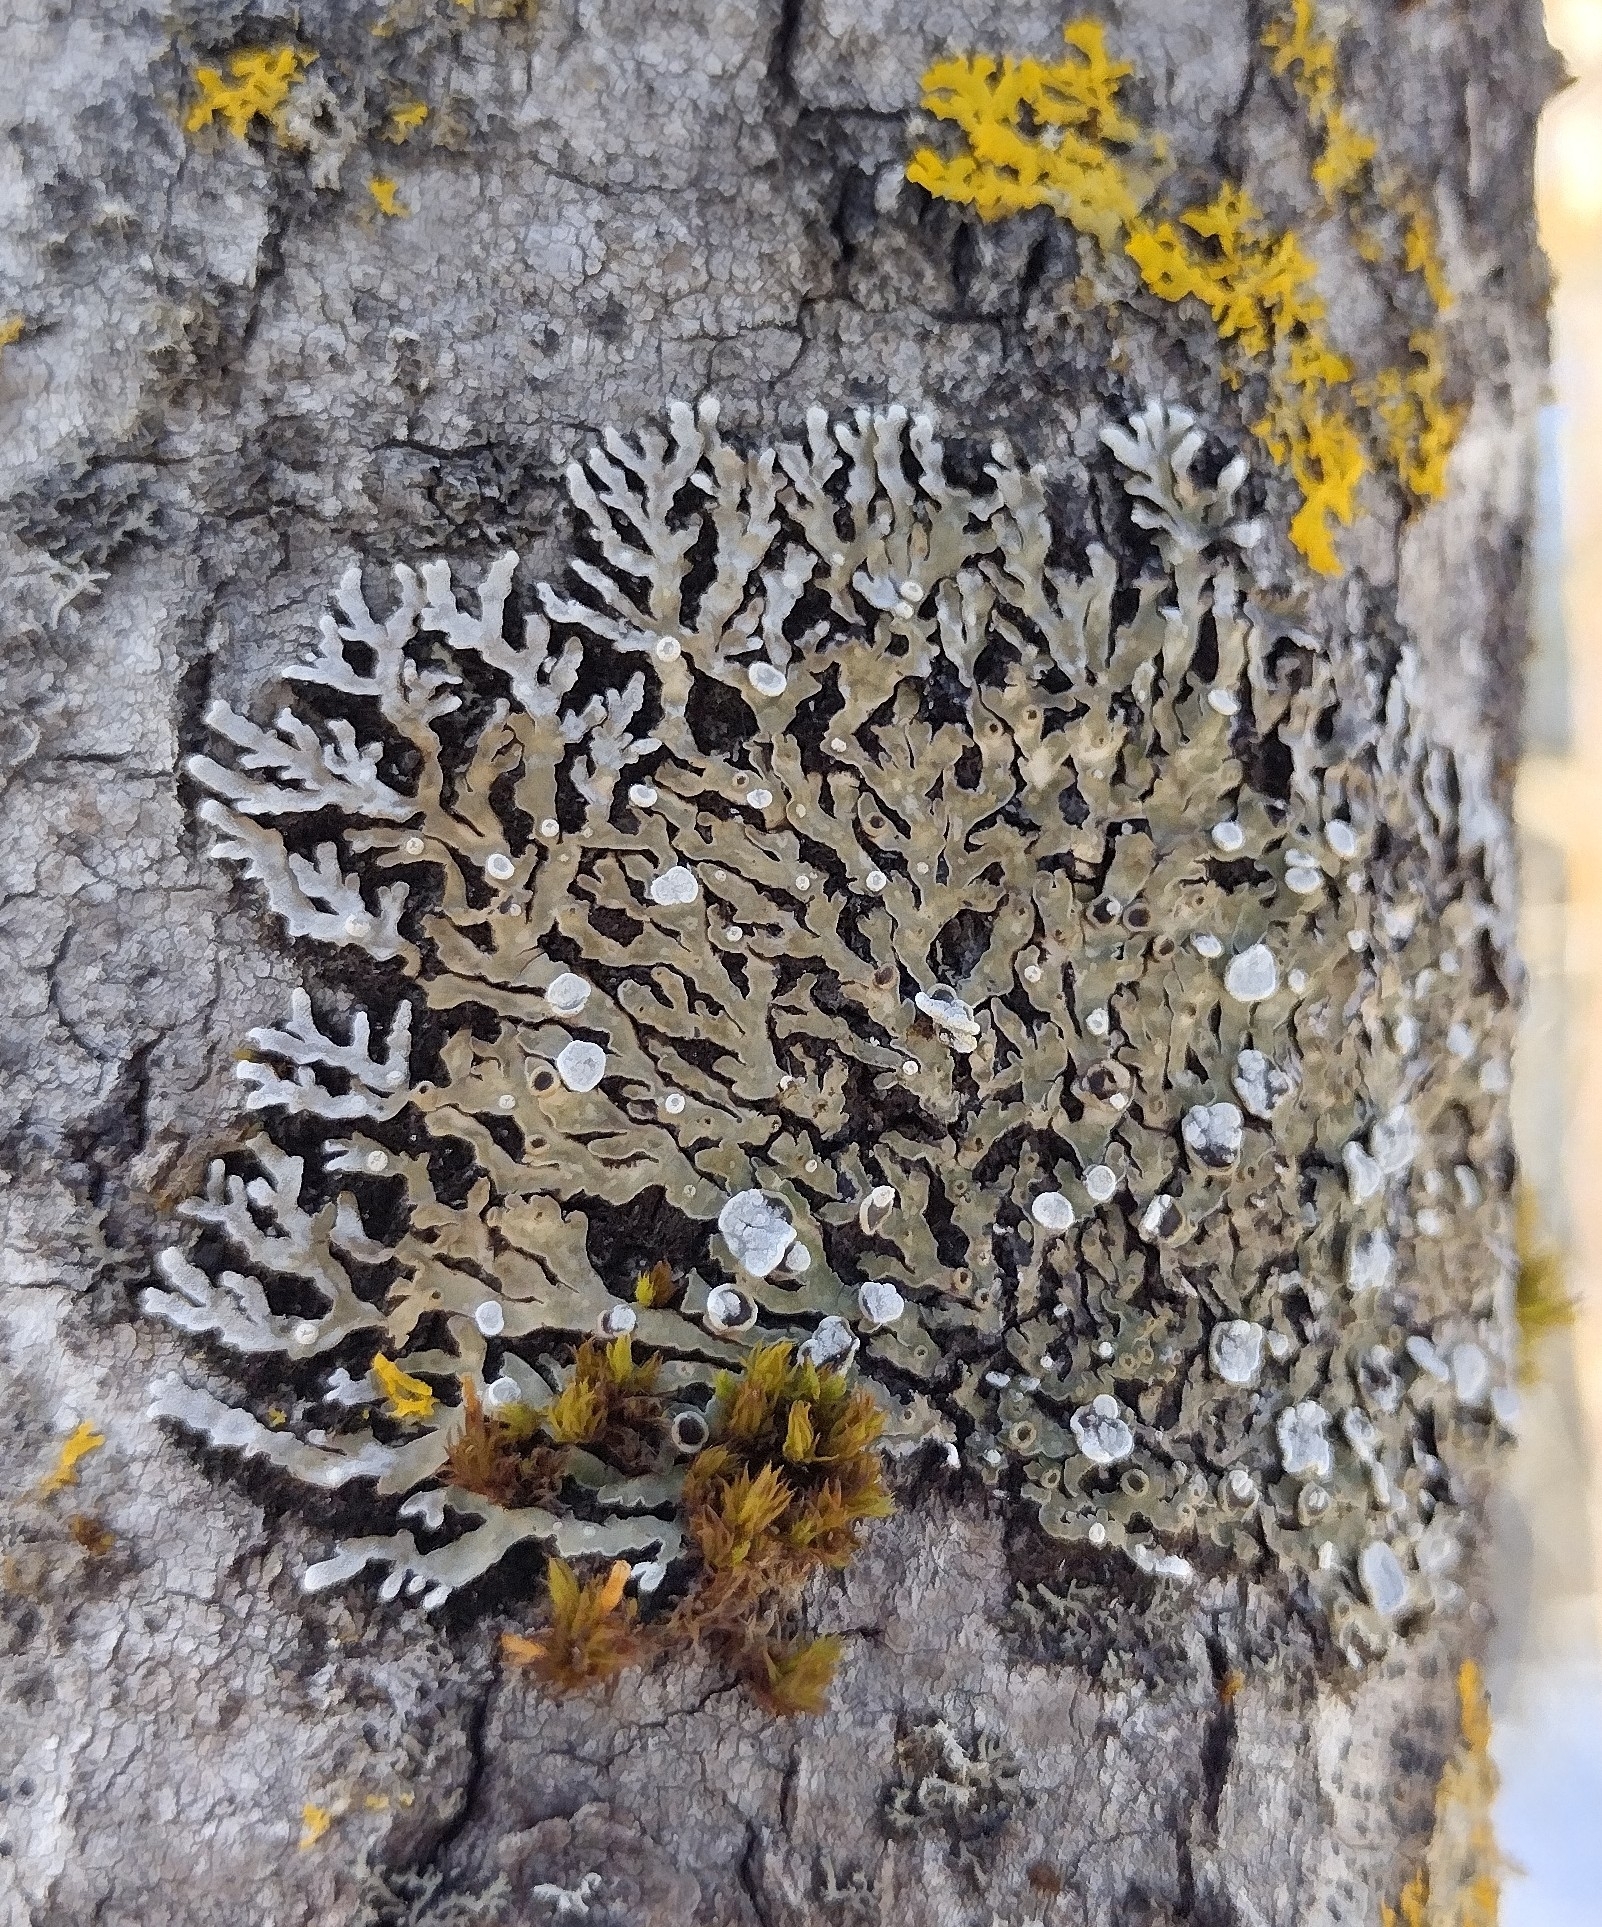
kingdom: Fungi
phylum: Ascomycota
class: Lecanoromycetes
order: Caliciales
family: Physciaceae
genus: Physconia
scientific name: Physconia distorta
